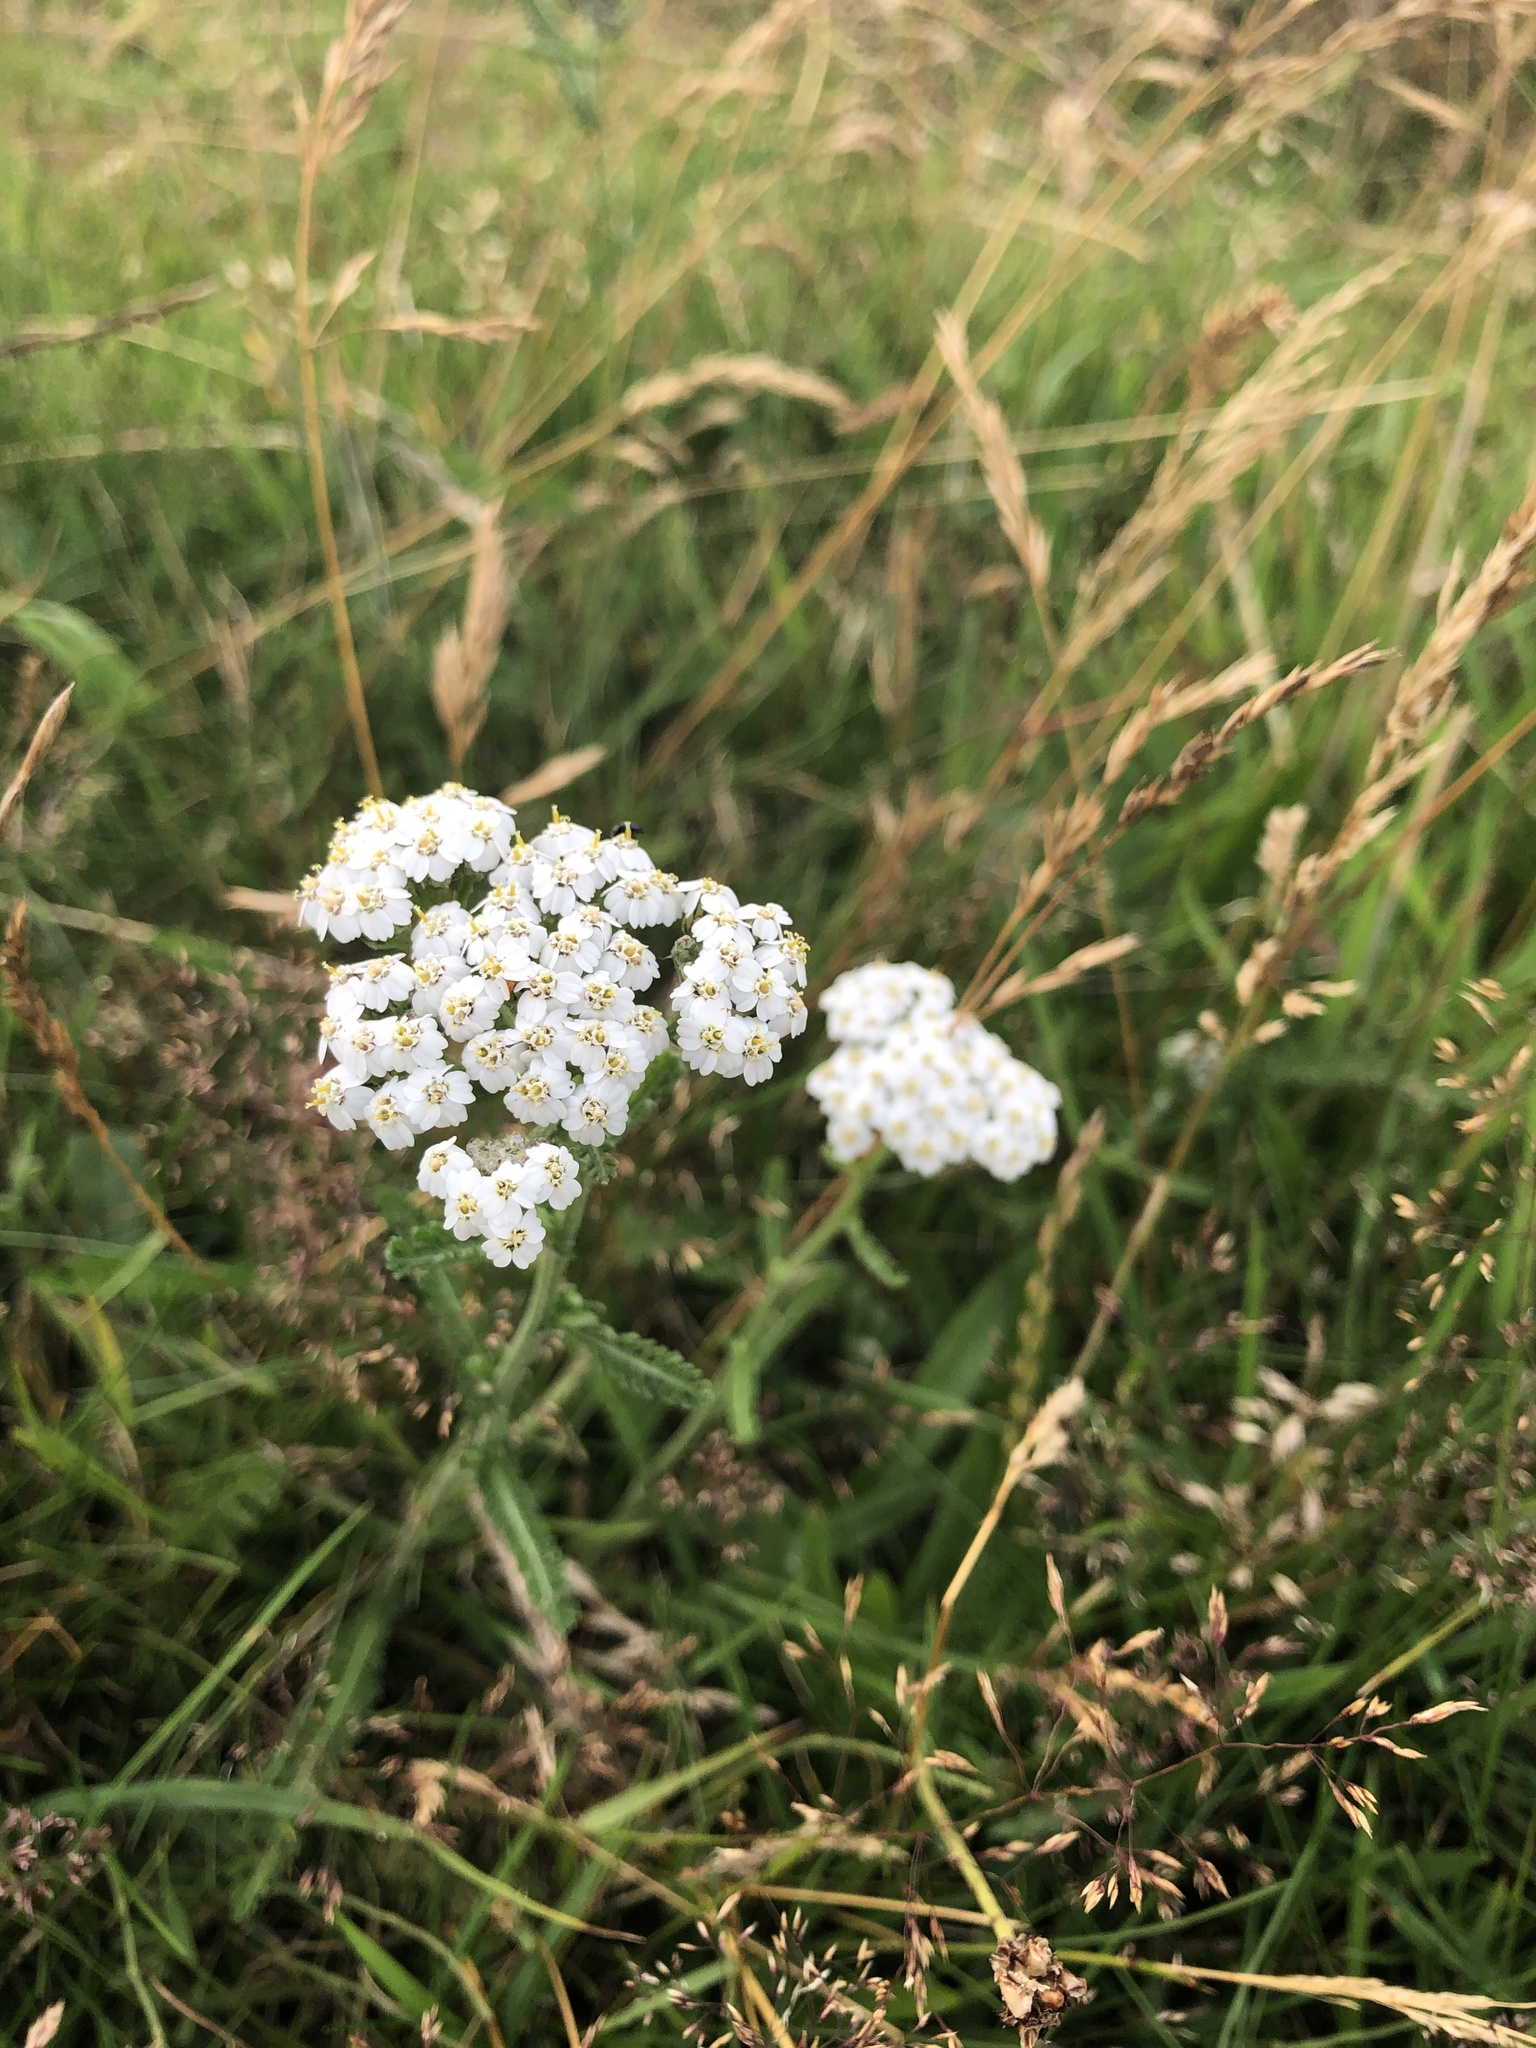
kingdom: Plantae
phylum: Tracheophyta
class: Magnoliopsida
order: Asterales
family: Asteraceae
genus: Achillea
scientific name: Achillea millefolium
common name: Yarrow
